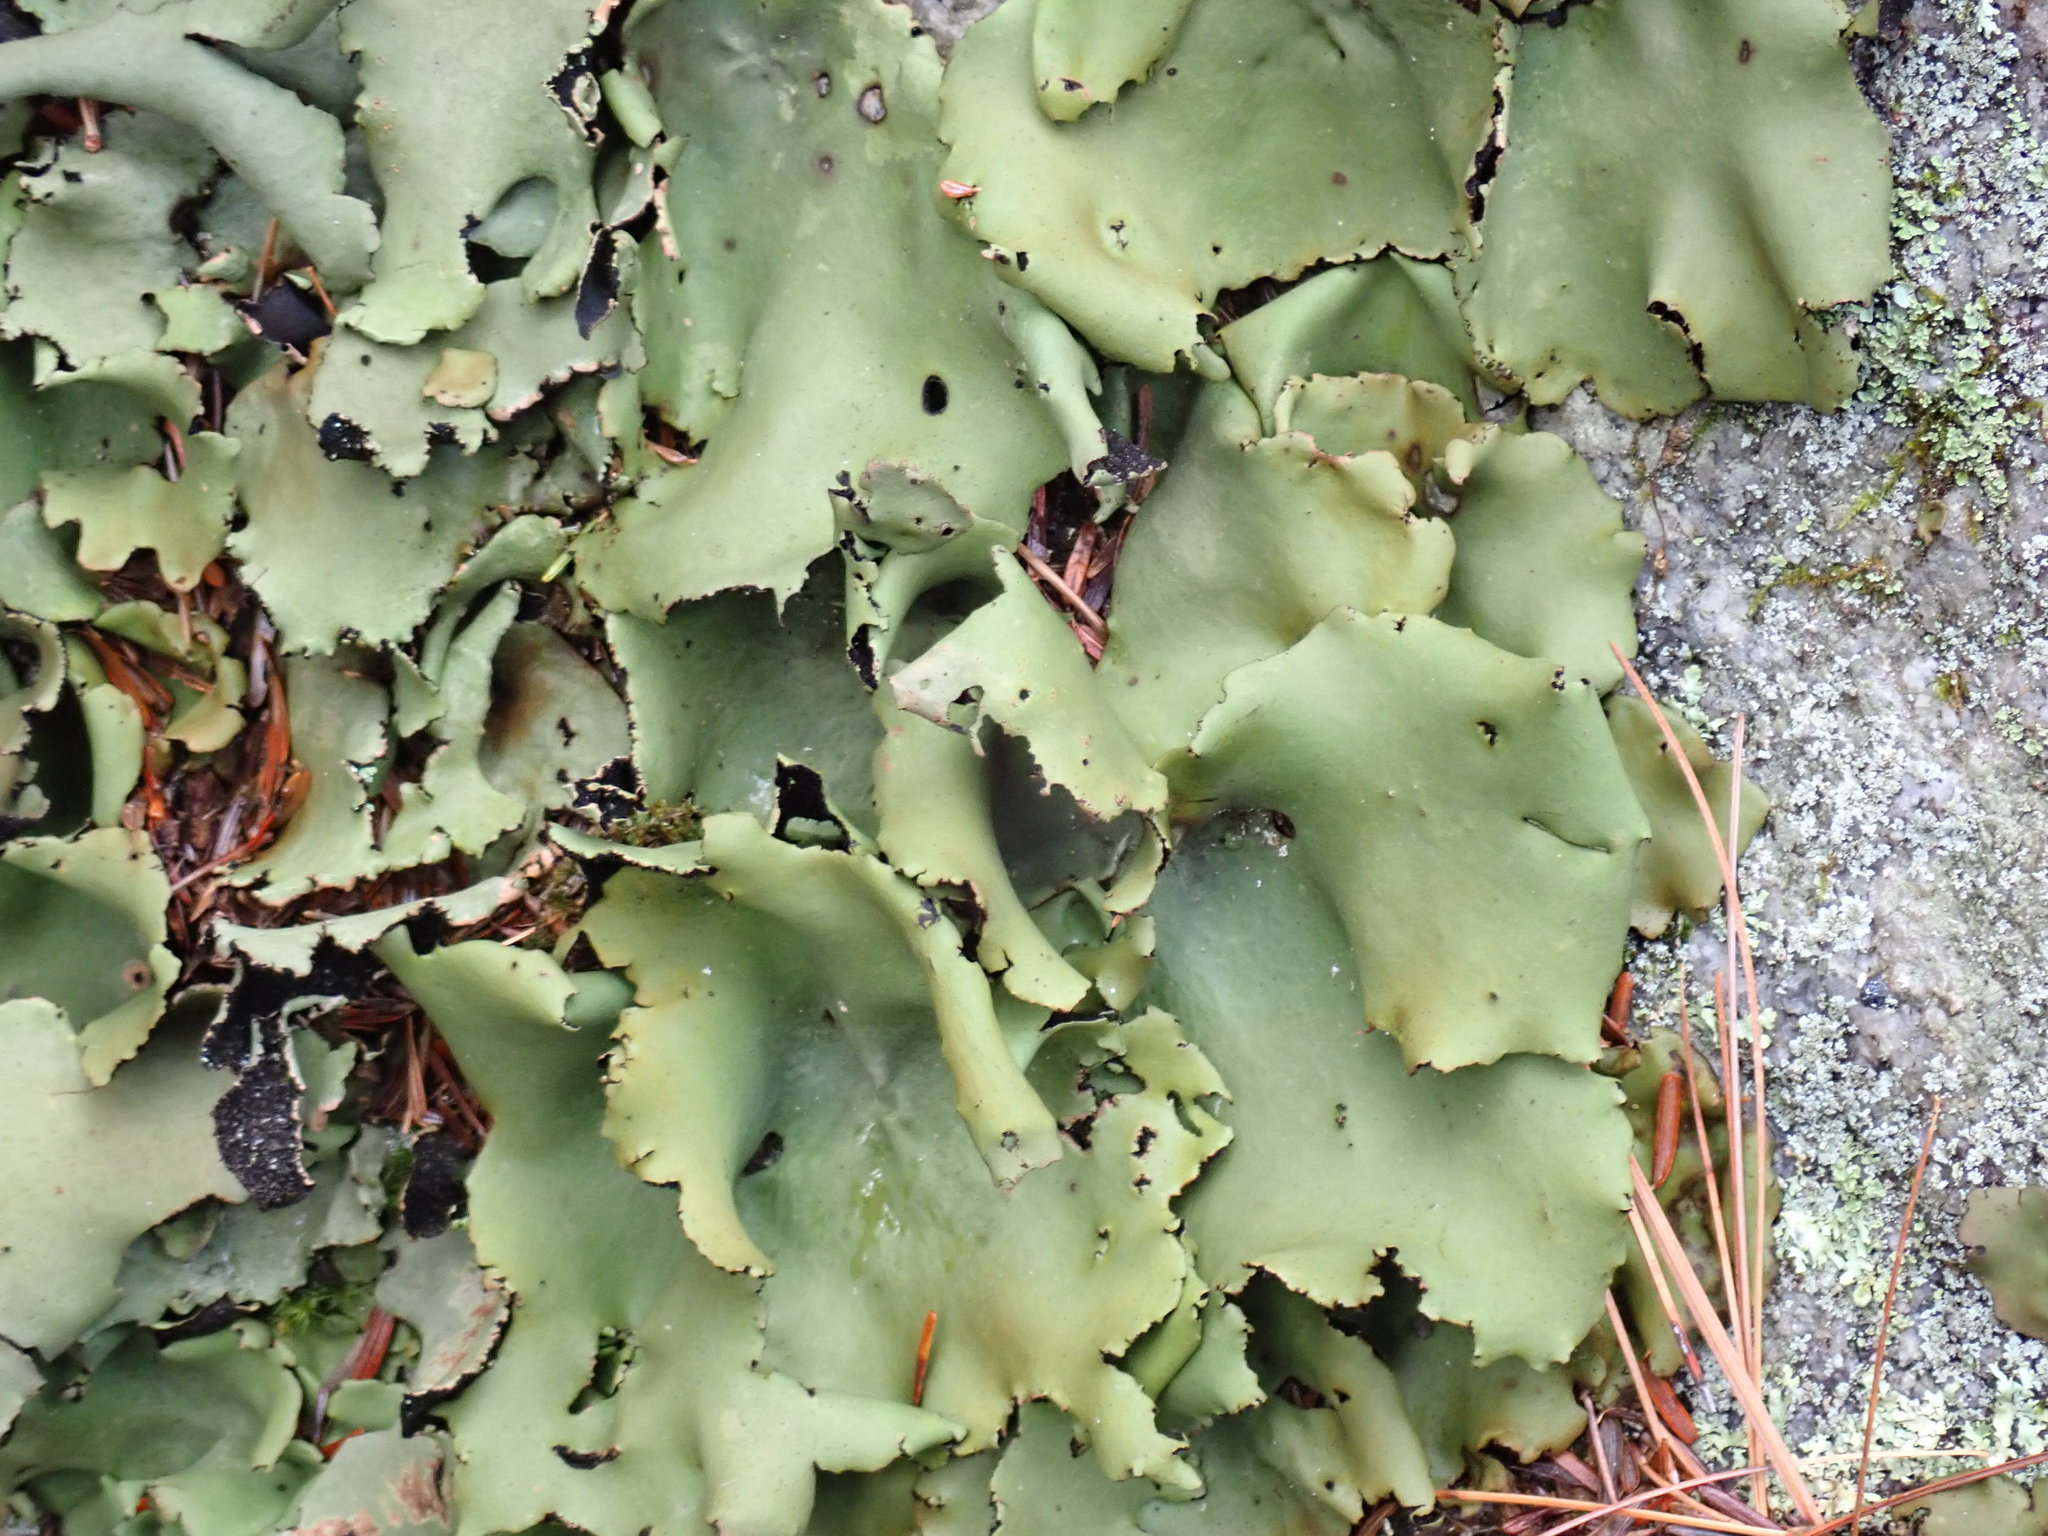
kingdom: Fungi
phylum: Ascomycota
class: Lecanoromycetes
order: Umbilicariales
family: Umbilicariaceae
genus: Umbilicaria
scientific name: Umbilicaria mammulata
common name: Smooth rock tripe
